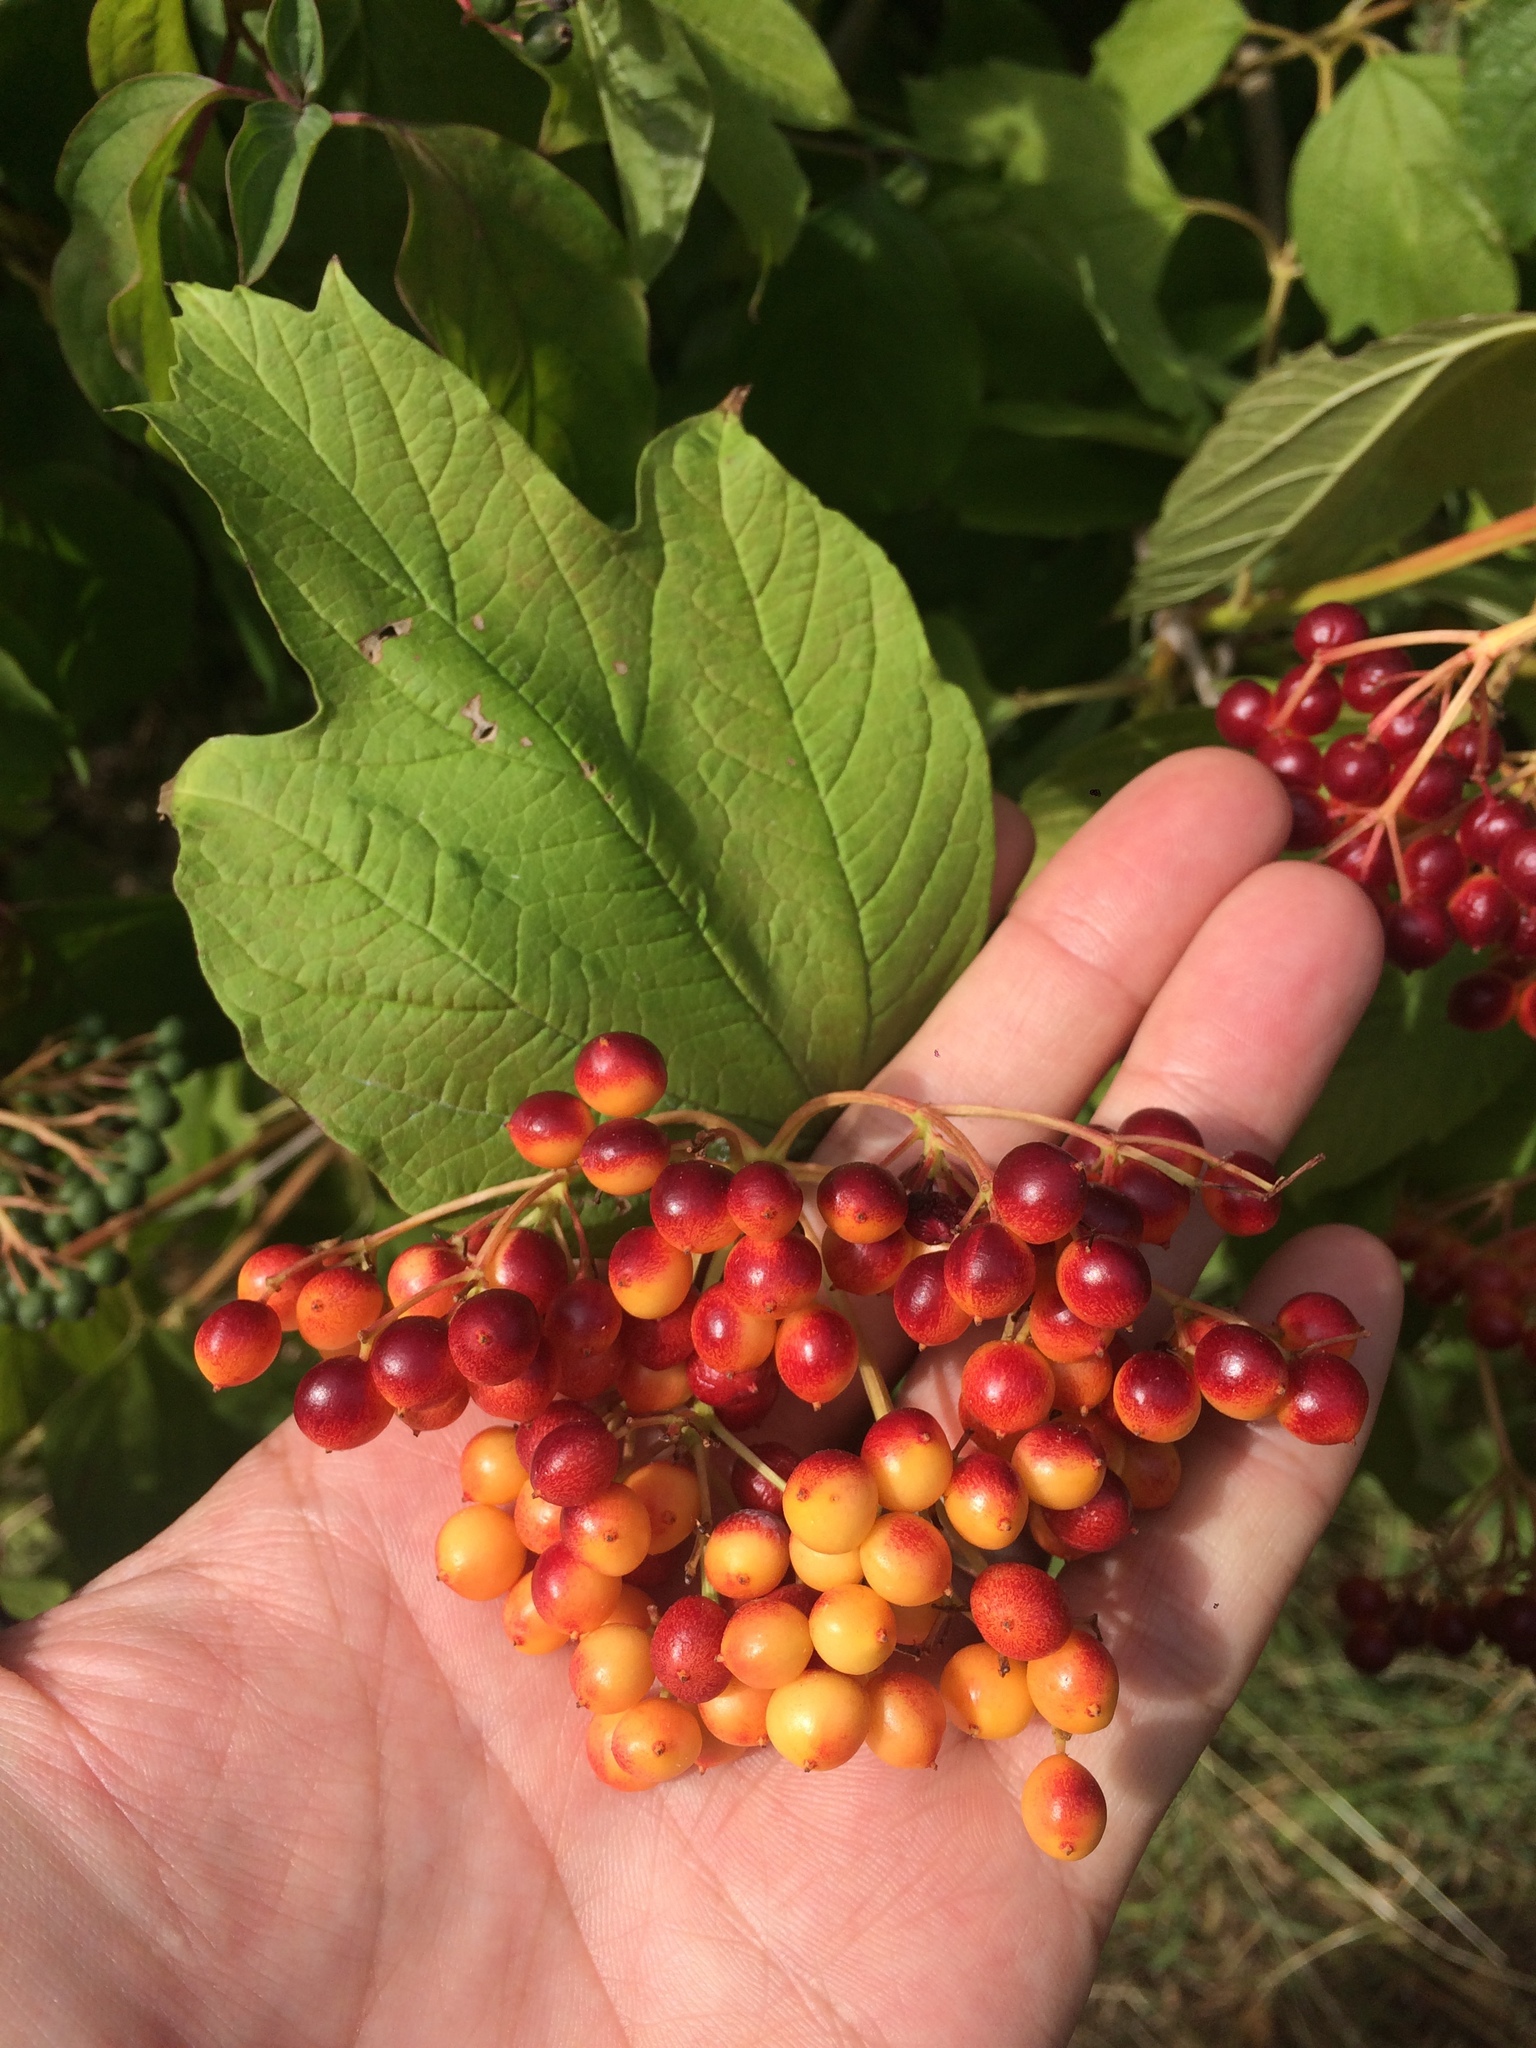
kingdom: Plantae
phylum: Tracheophyta
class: Magnoliopsida
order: Dipsacales
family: Viburnaceae
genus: Viburnum
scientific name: Viburnum opulus
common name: Guelder-rose
